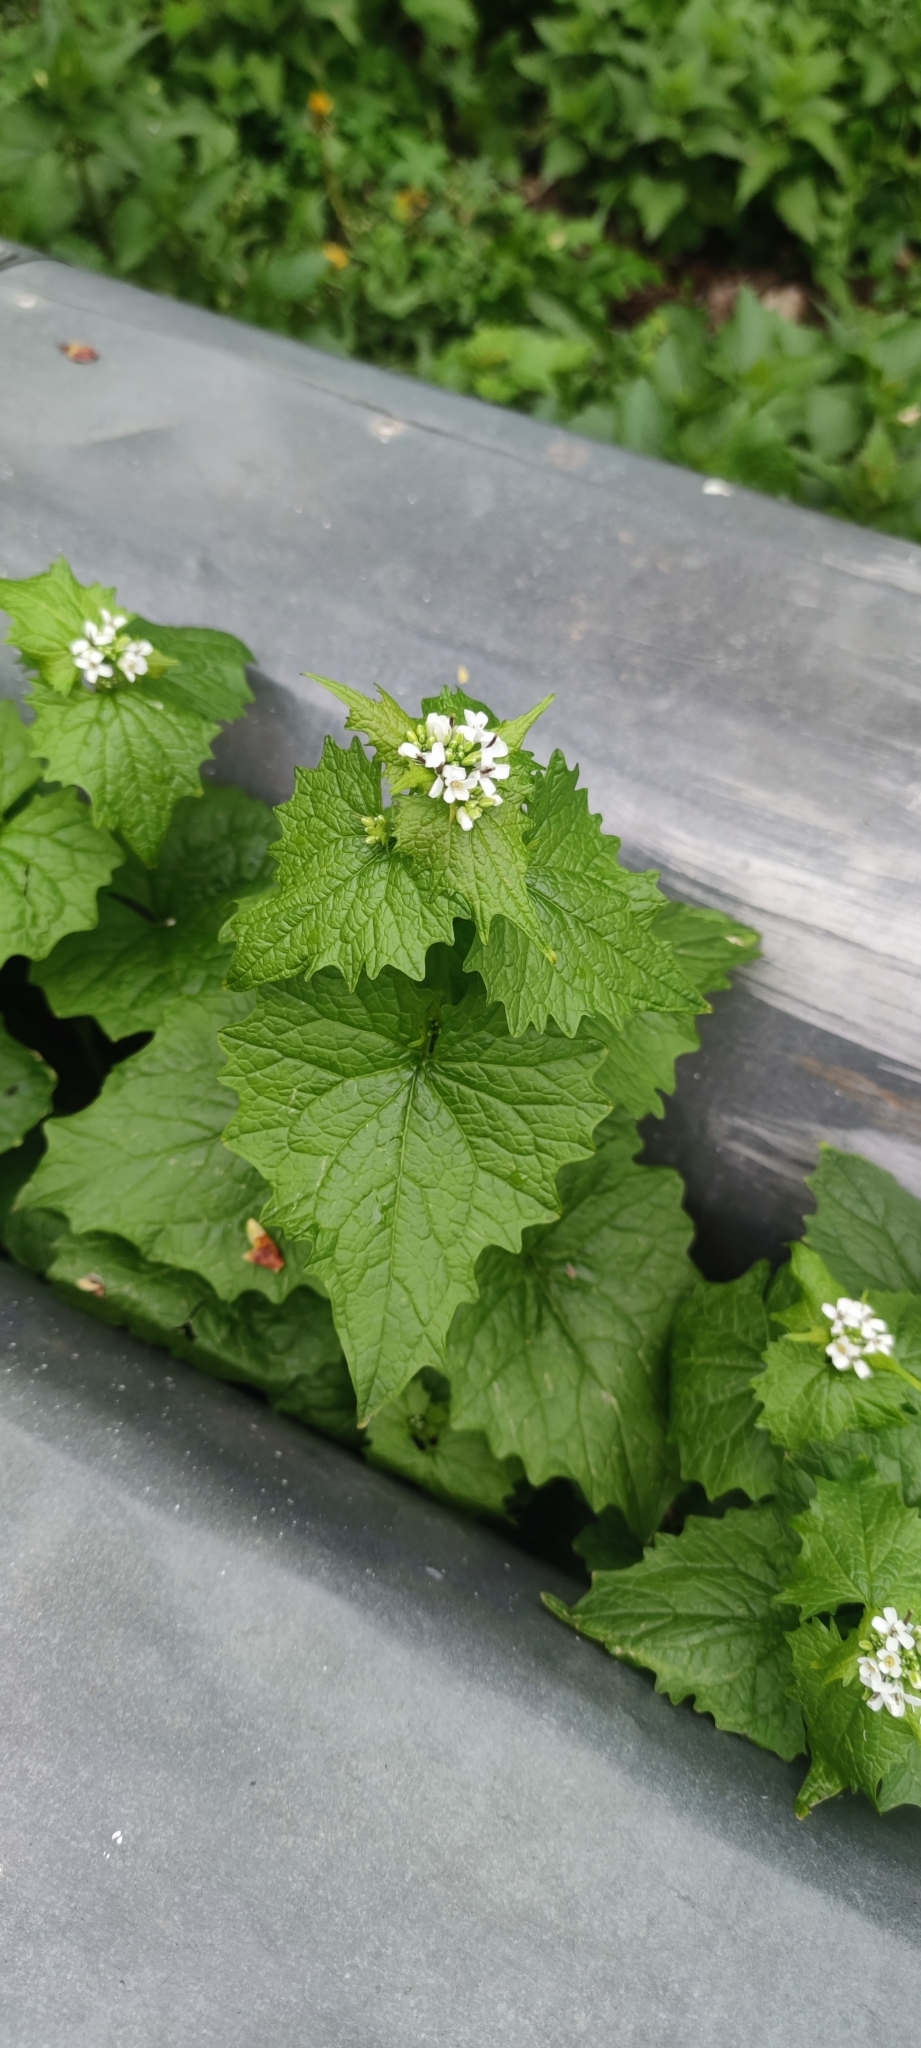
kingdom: Plantae
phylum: Tracheophyta
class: Magnoliopsida
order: Brassicales
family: Brassicaceae
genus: Alliaria
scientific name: Alliaria petiolata
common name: Garlic mustard
